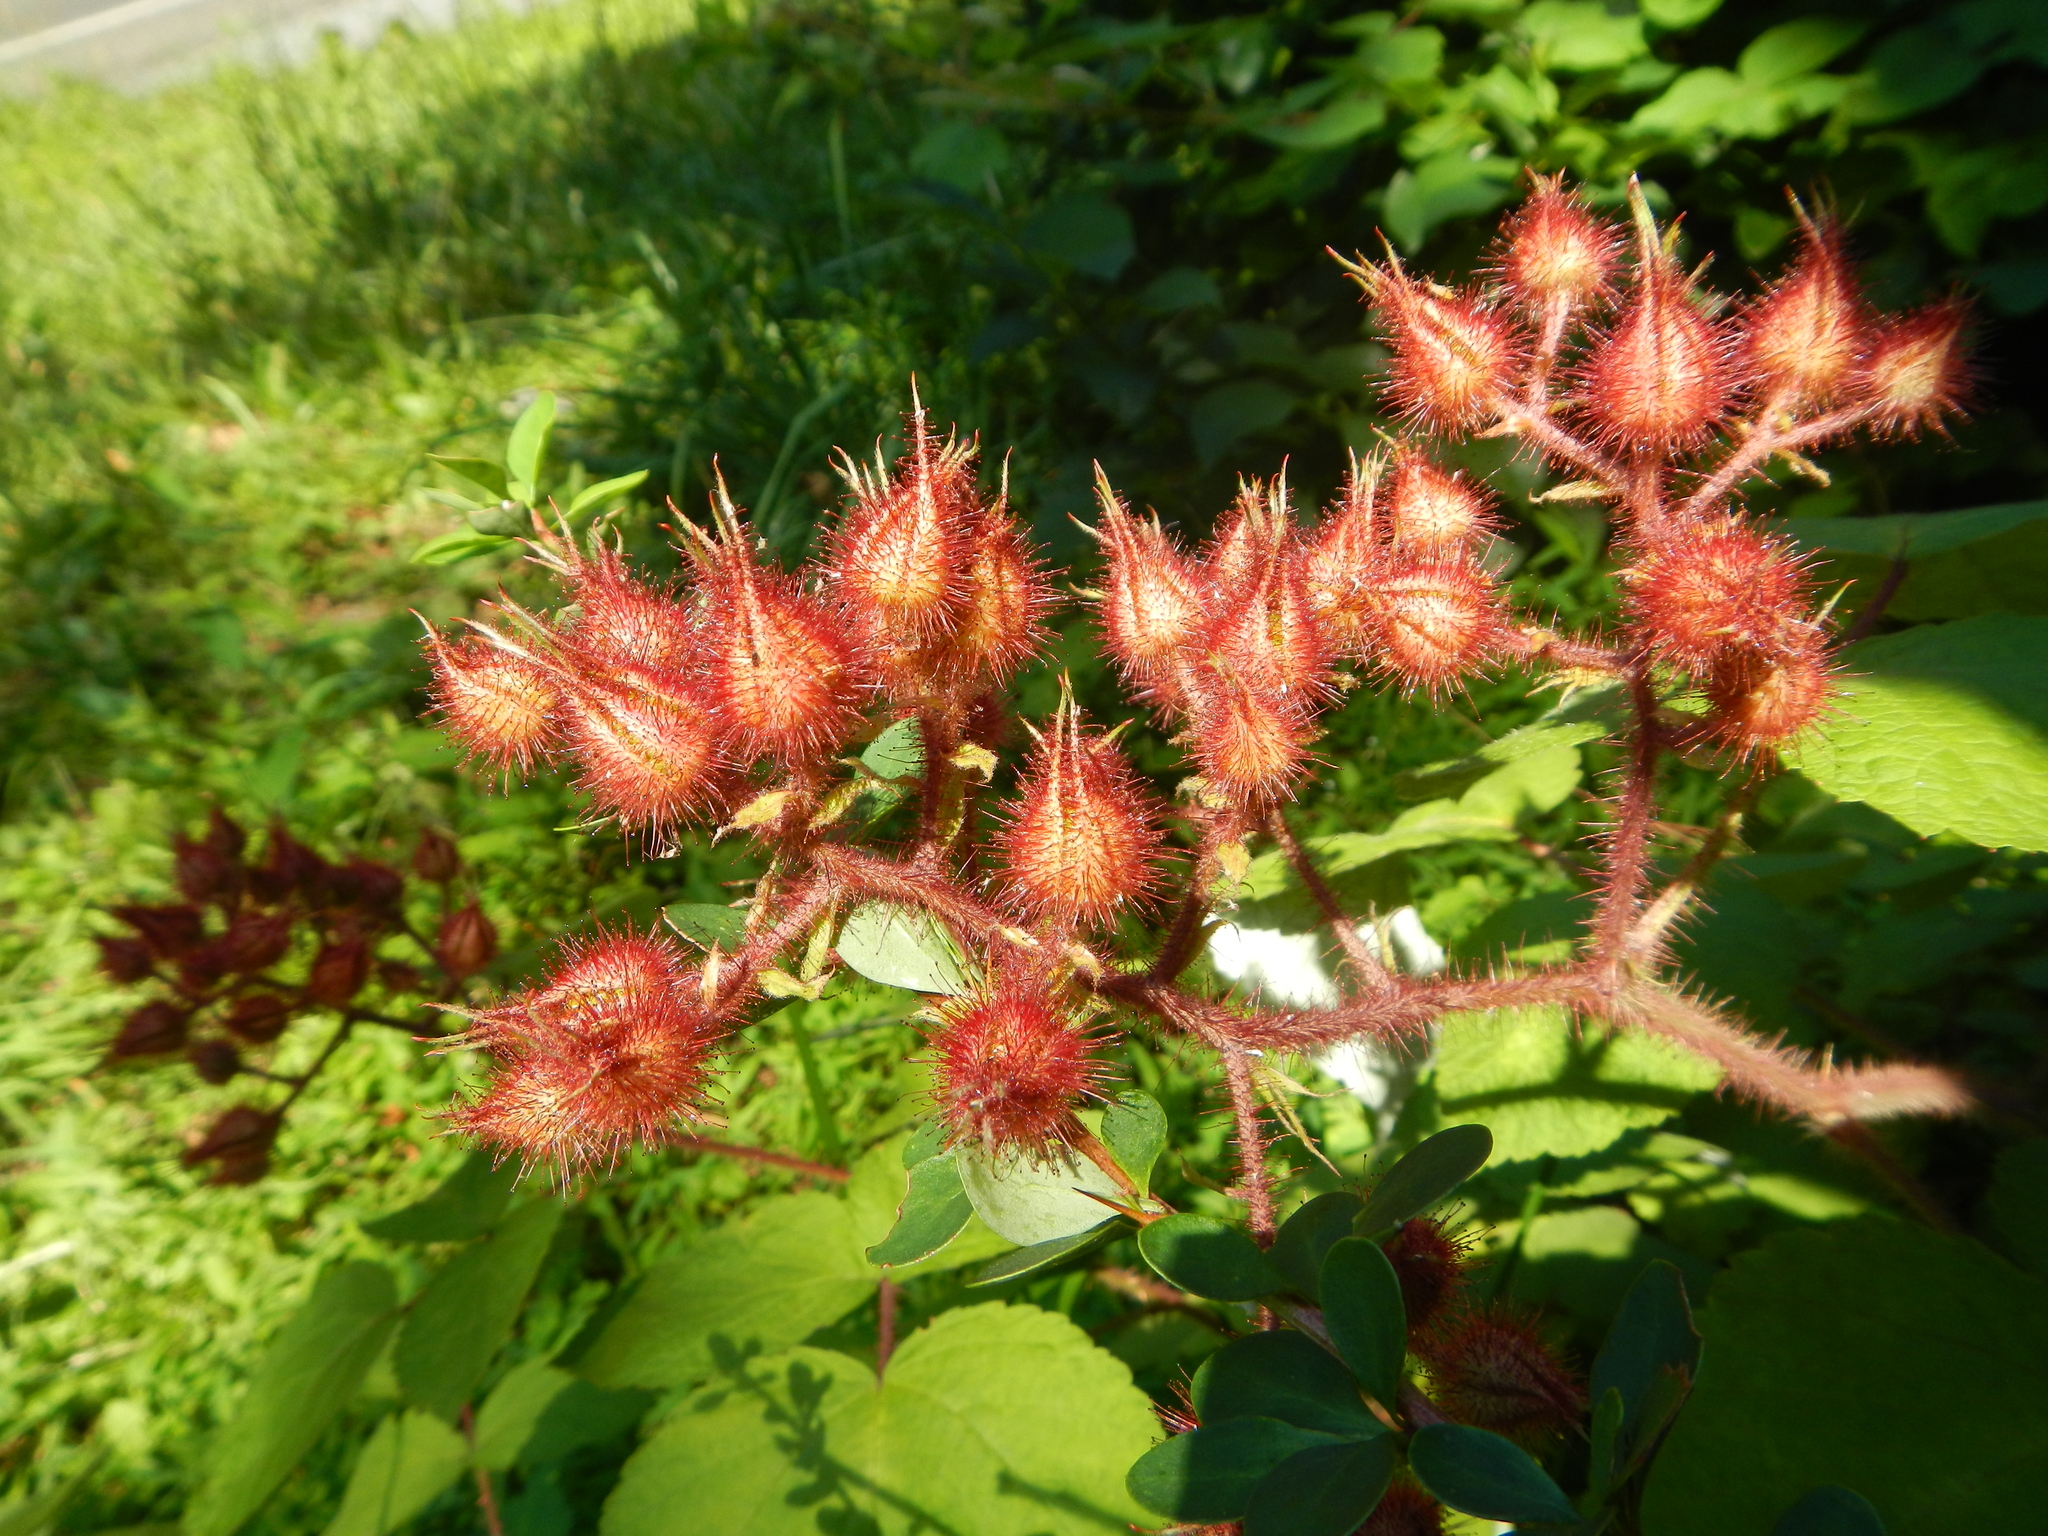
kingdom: Plantae
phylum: Tracheophyta
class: Magnoliopsida
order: Rosales
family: Rosaceae
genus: Rubus
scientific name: Rubus phoenicolasius
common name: Japanese wineberry
